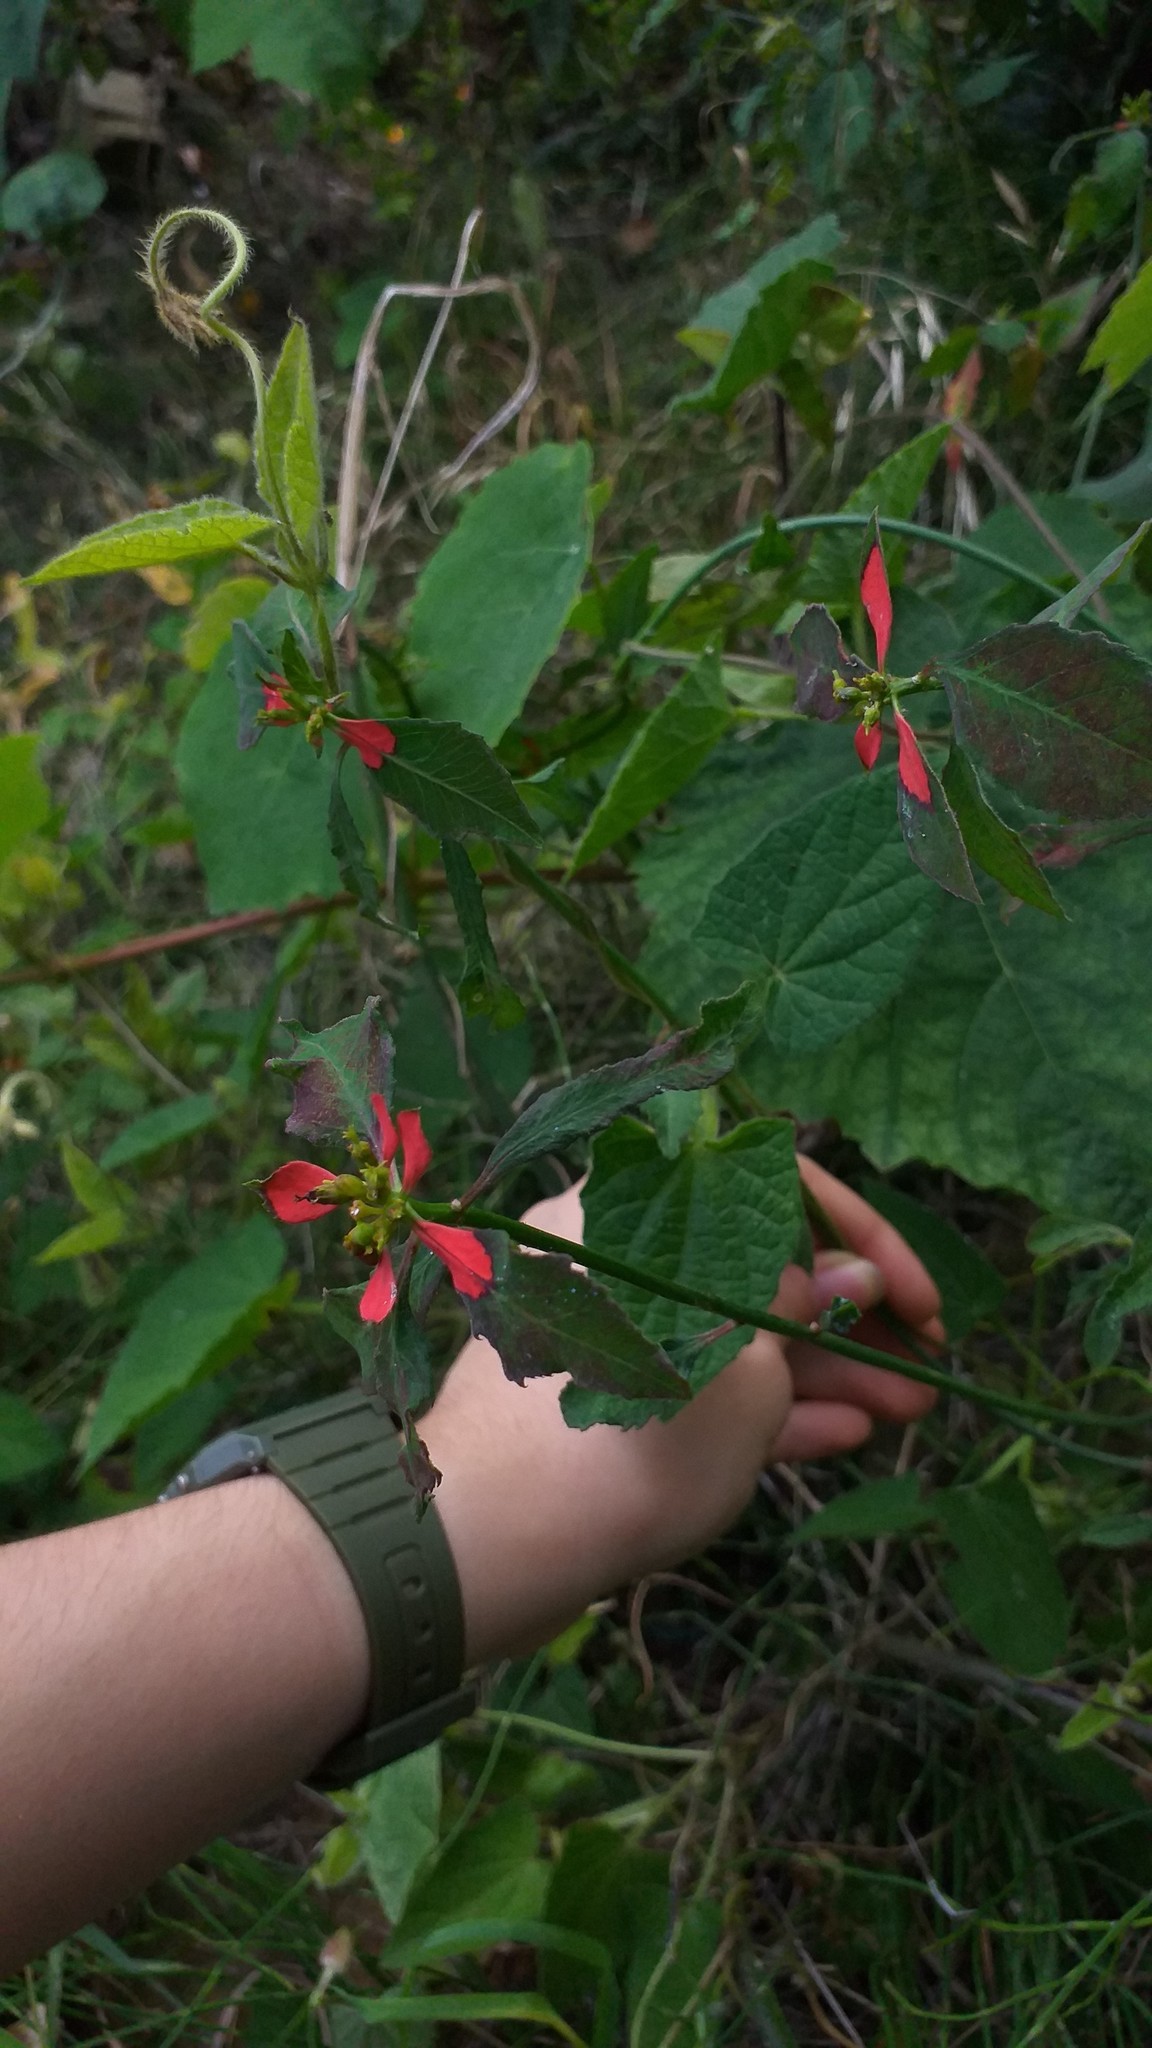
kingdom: Plantae
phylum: Tracheophyta
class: Magnoliopsida
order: Malpighiales
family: Euphorbiaceae
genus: Euphorbia
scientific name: Euphorbia heterophylla
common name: Mexican fireplant
